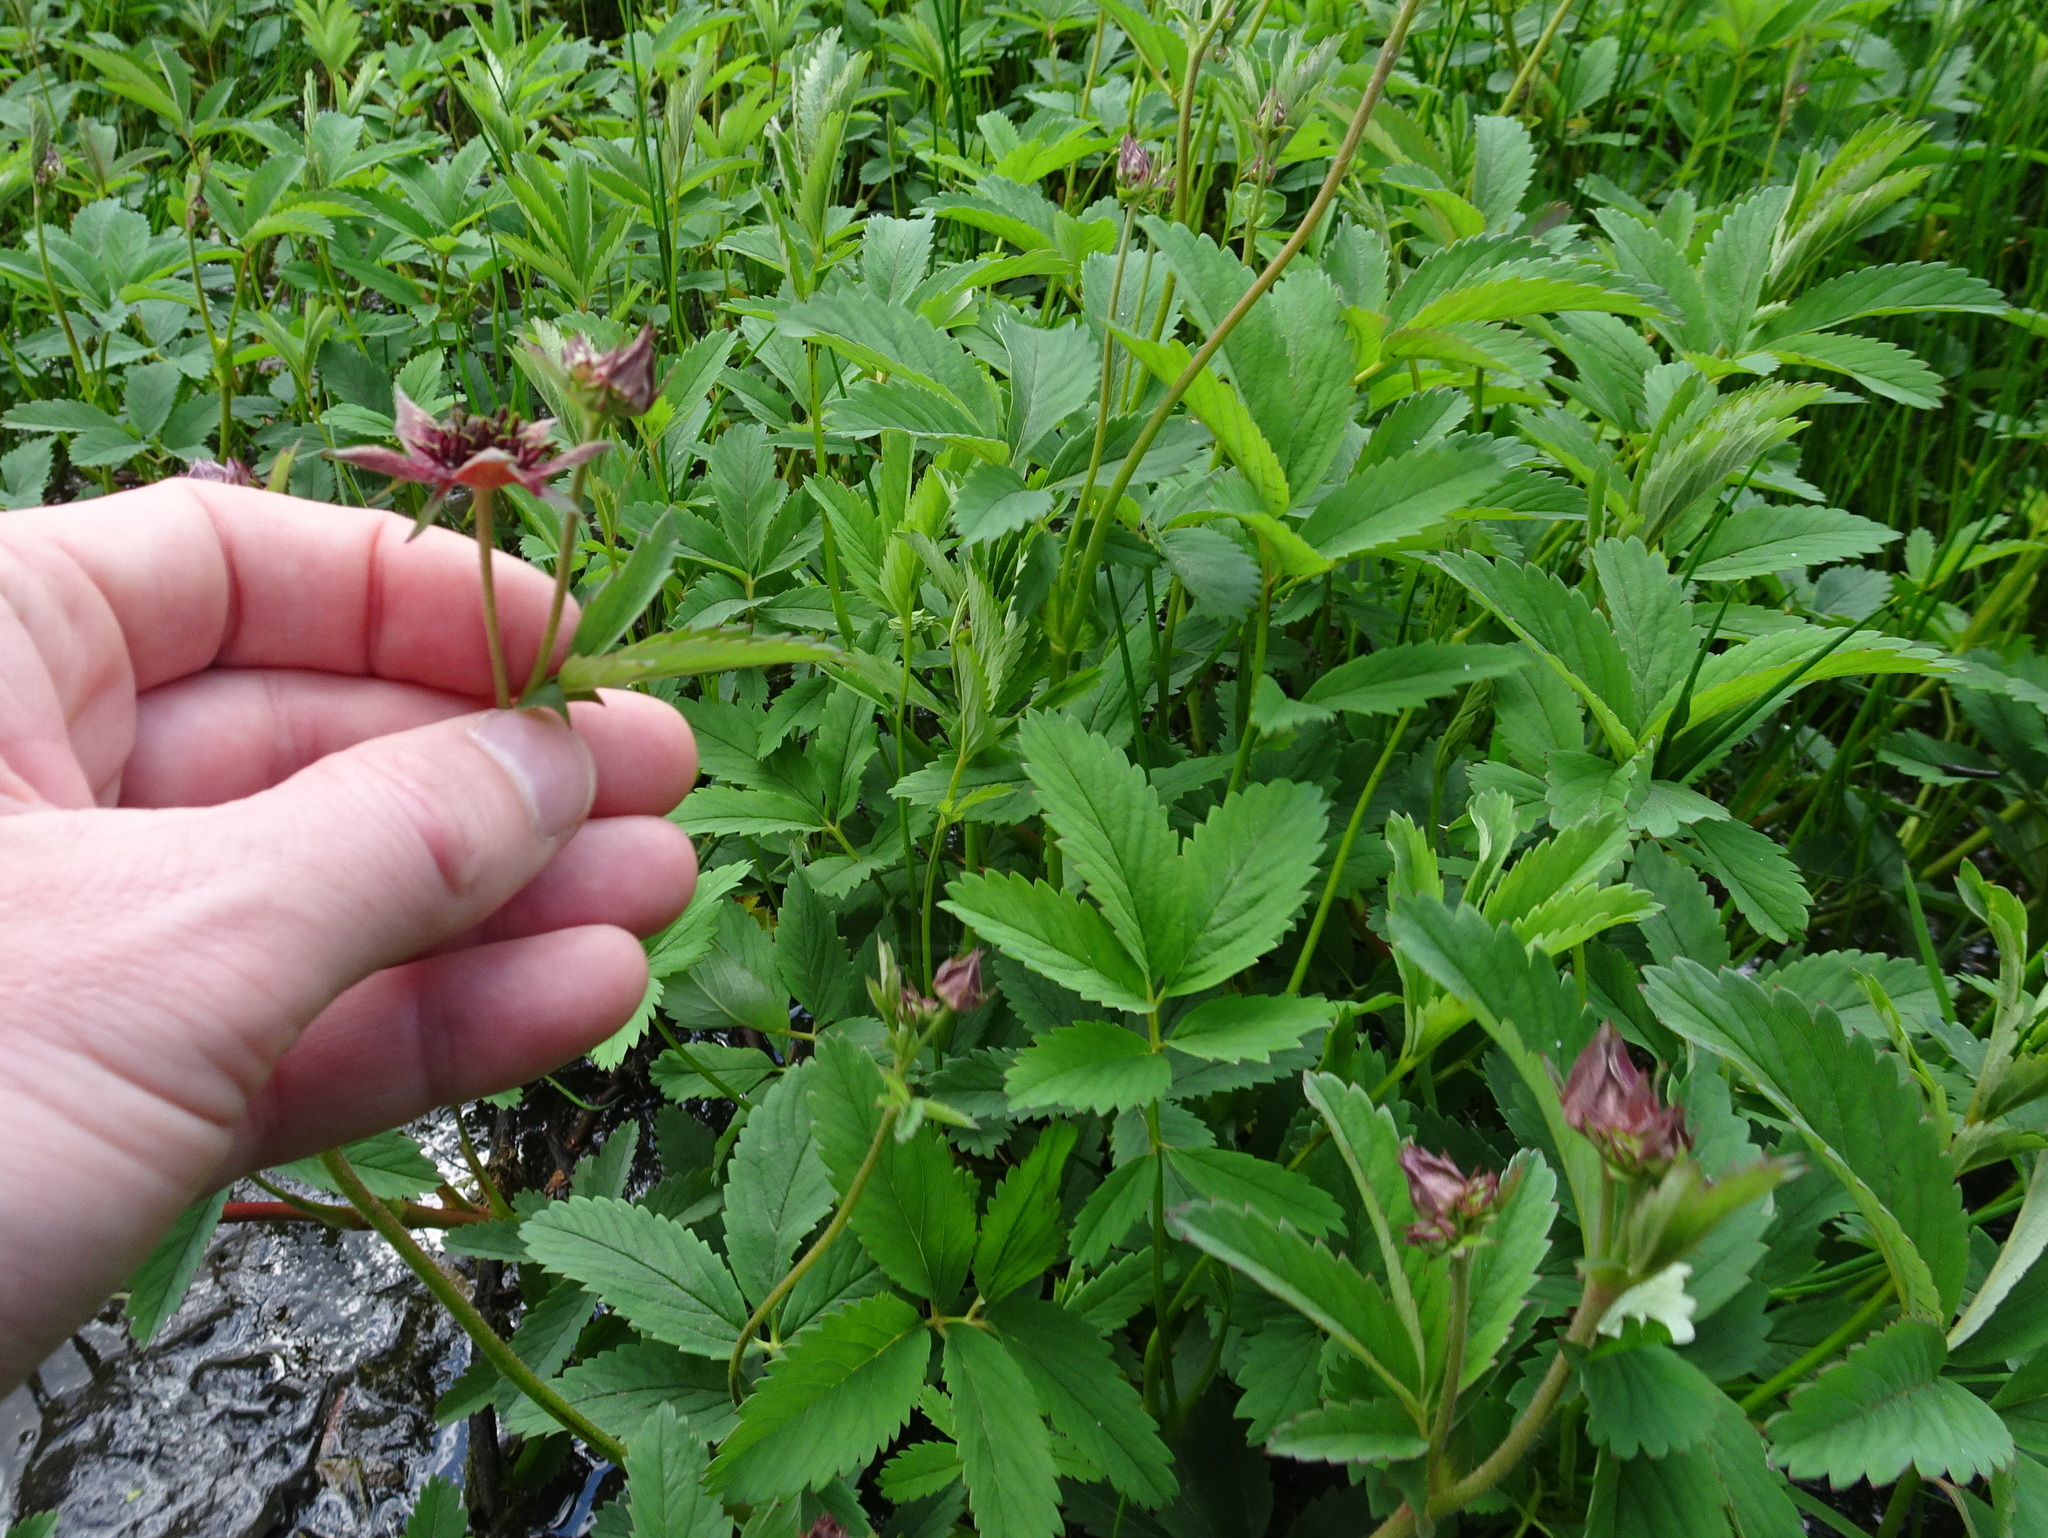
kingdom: Plantae
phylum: Tracheophyta
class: Magnoliopsida
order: Rosales
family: Rosaceae
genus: Comarum
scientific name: Comarum palustre
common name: Marsh cinquefoil
